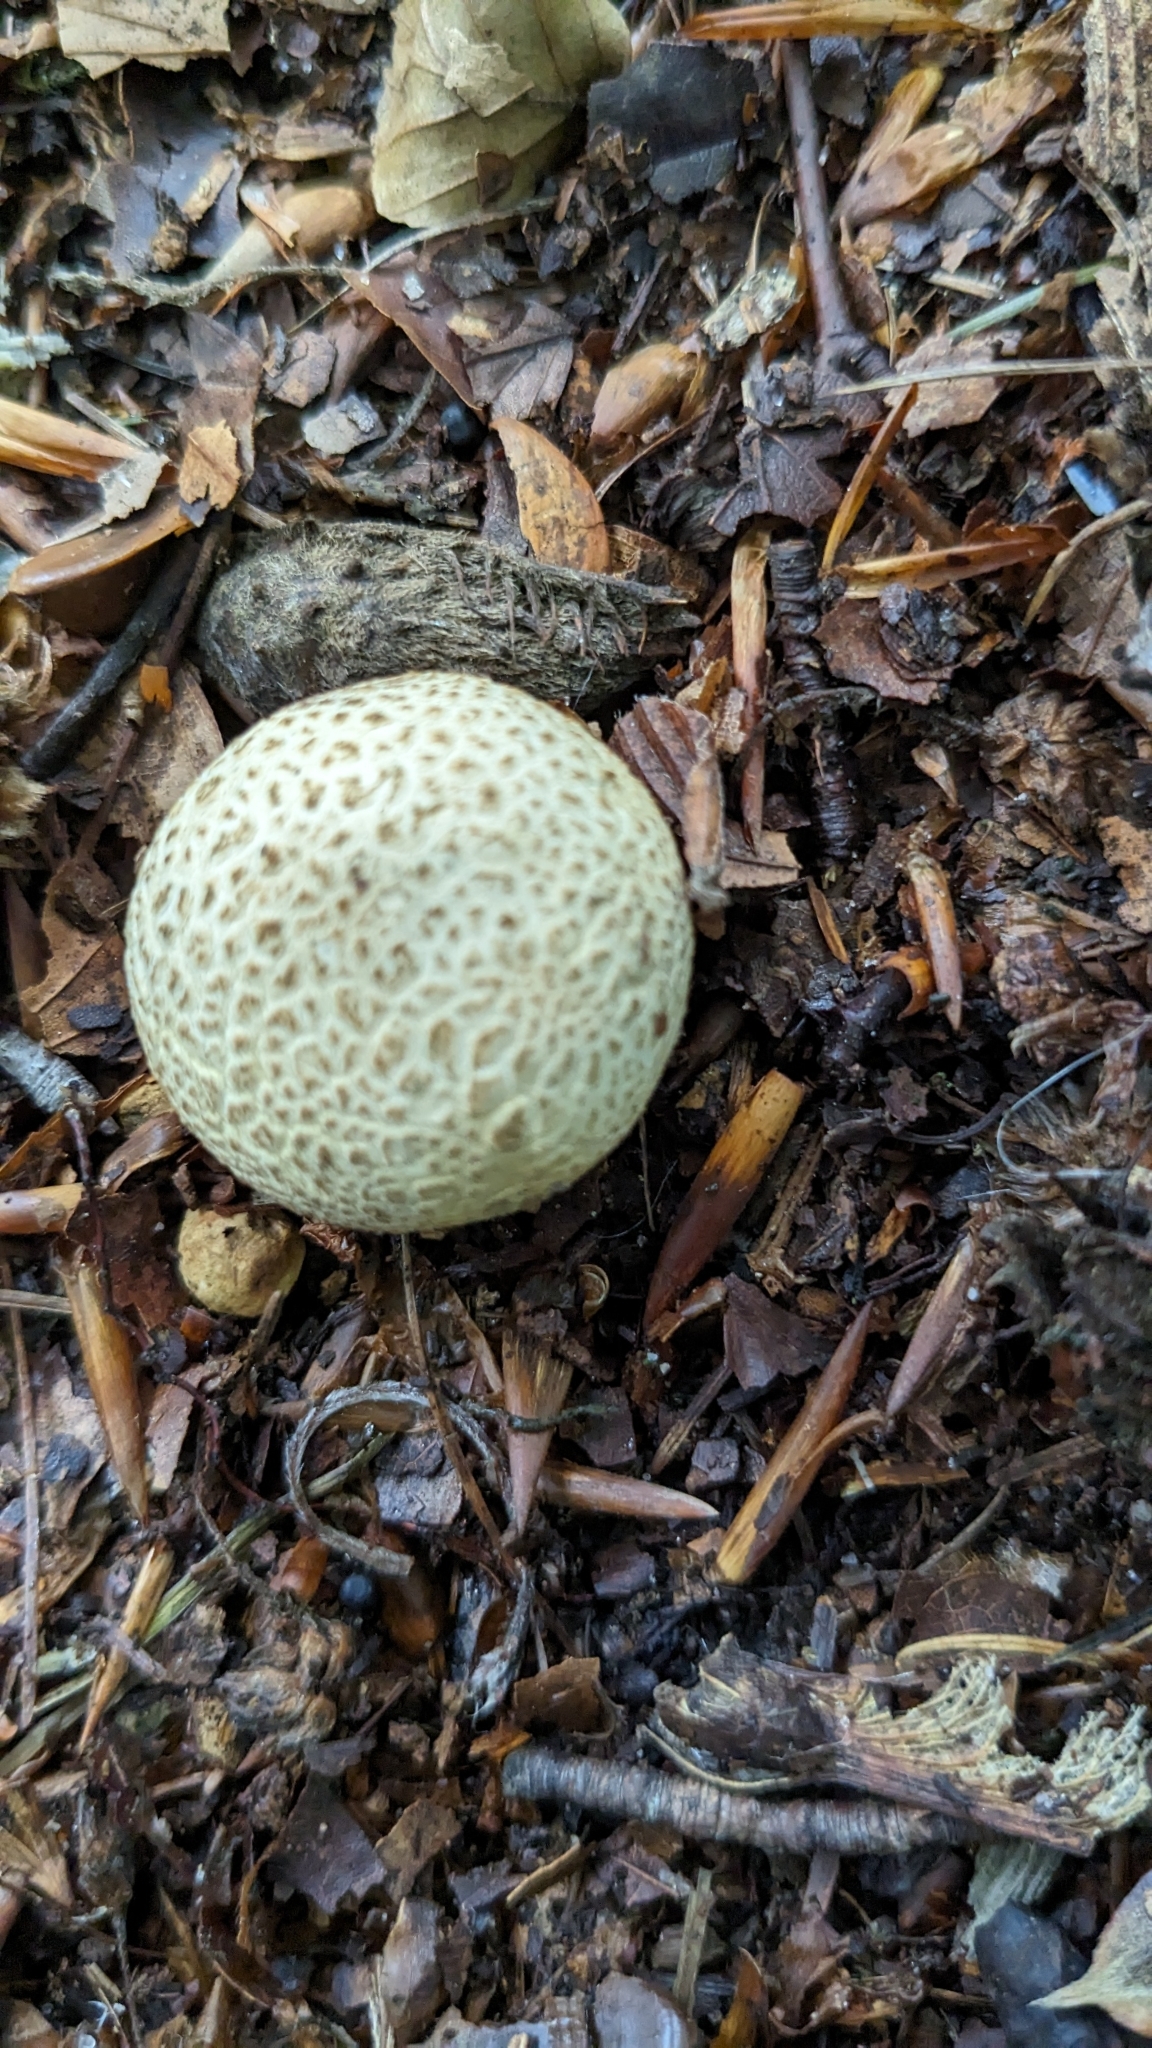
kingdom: Fungi
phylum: Basidiomycota
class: Agaricomycetes
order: Boletales
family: Sclerodermataceae
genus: Scleroderma
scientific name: Scleroderma citrinum
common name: Common earthball
